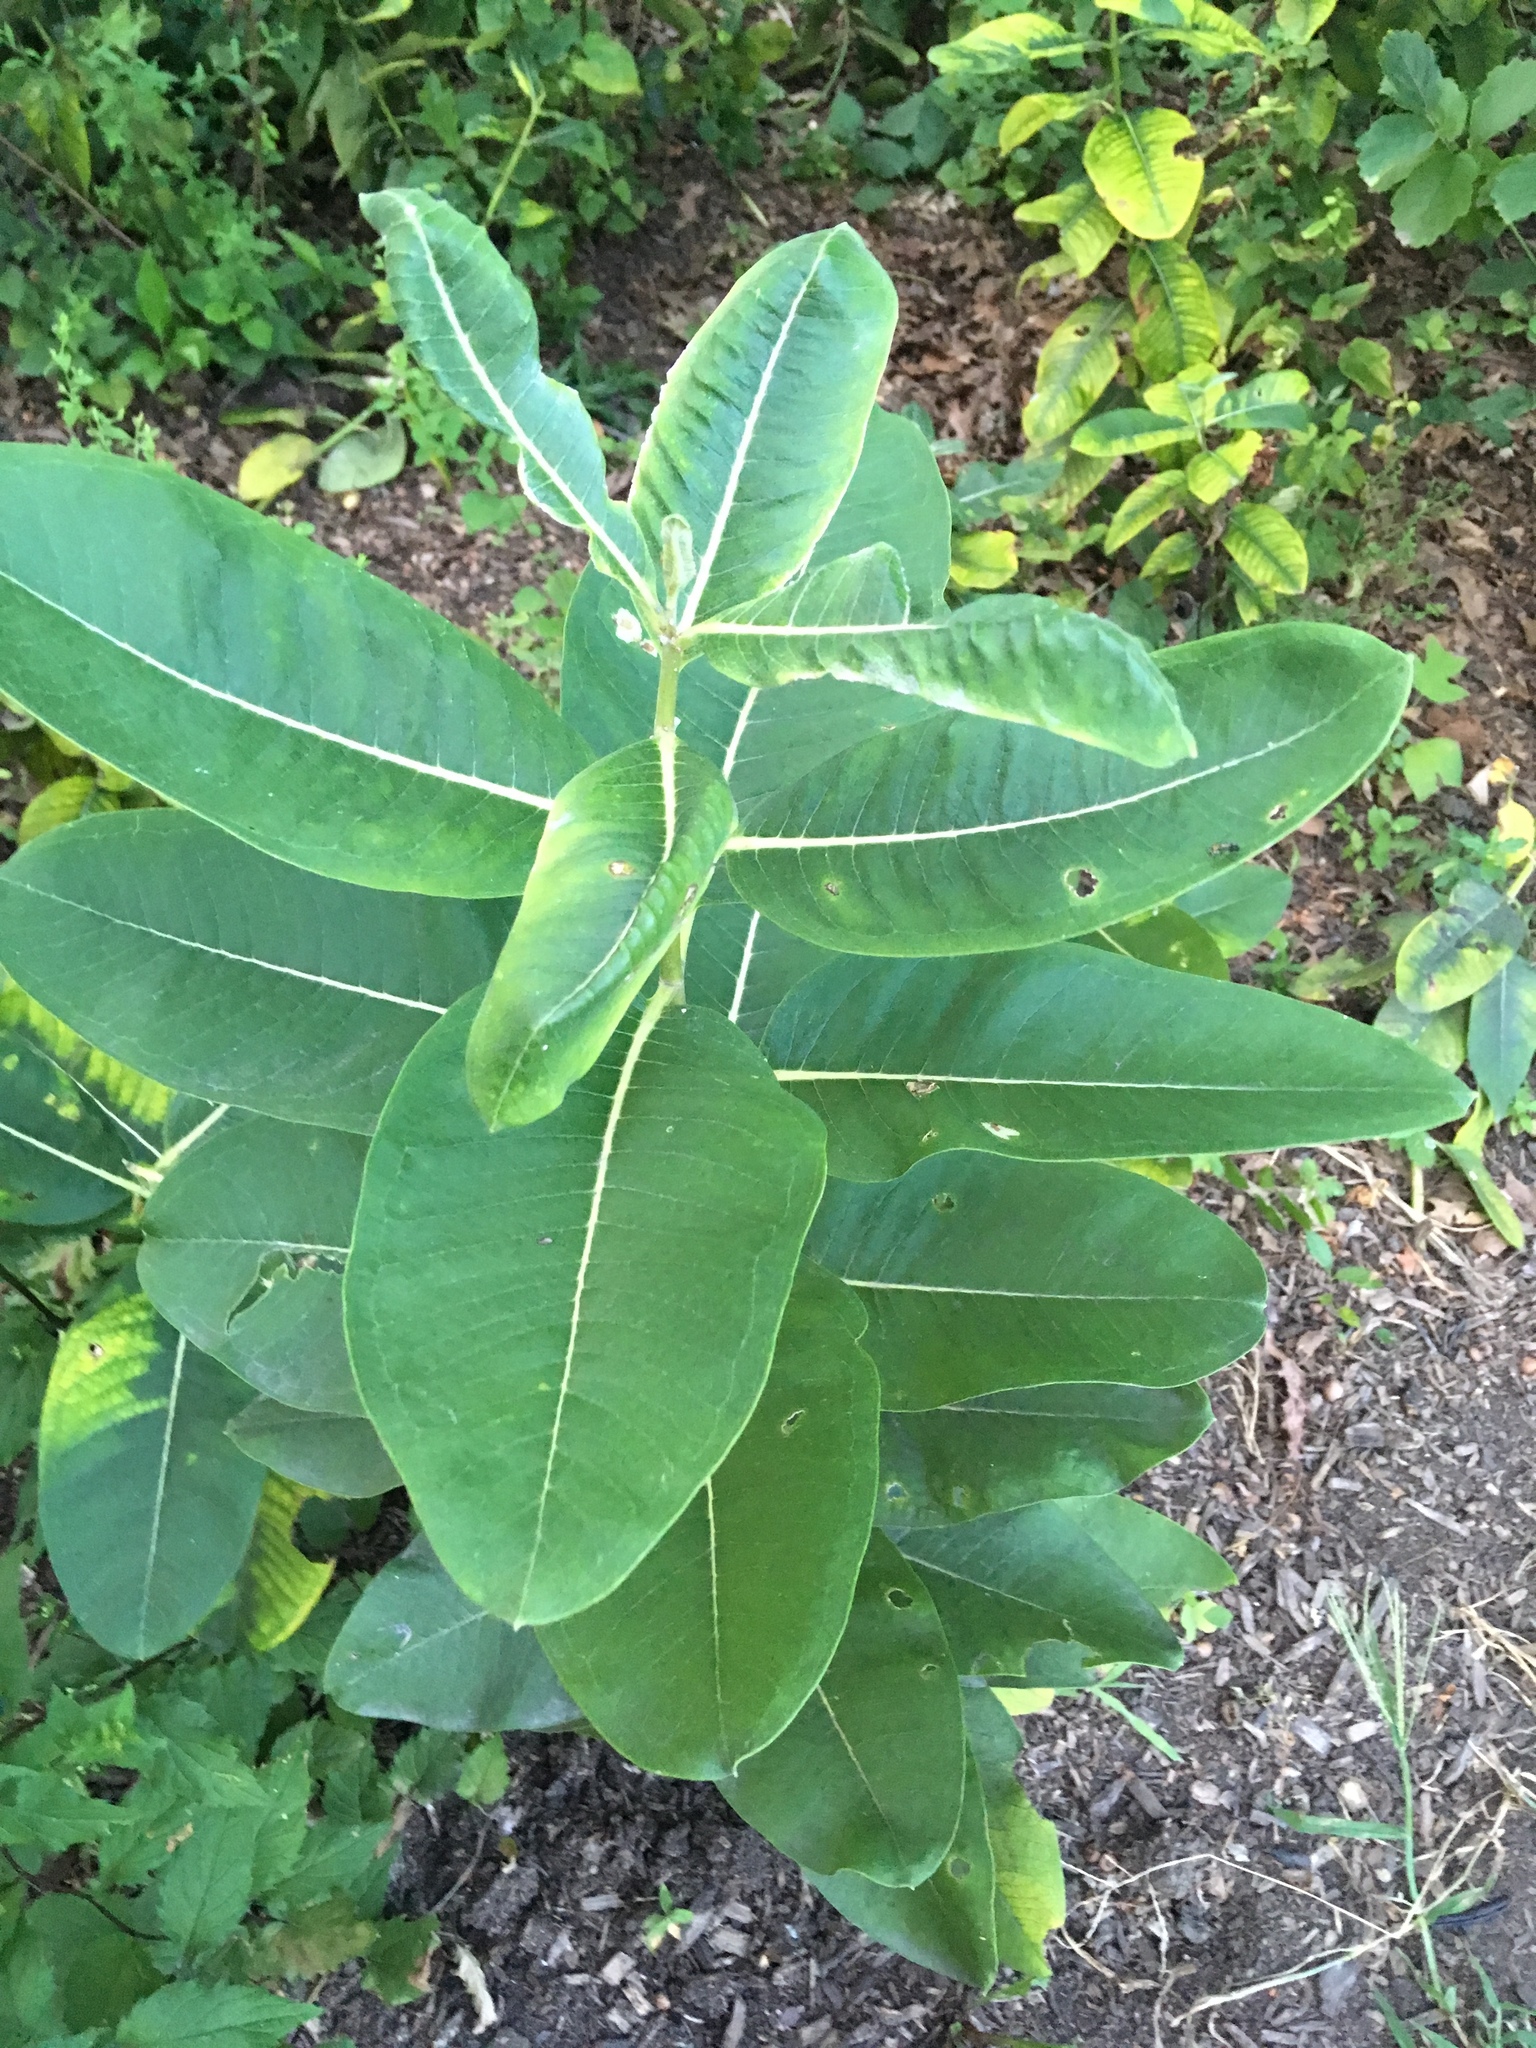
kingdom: Plantae
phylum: Tracheophyta
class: Magnoliopsida
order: Gentianales
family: Apocynaceae
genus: Asclepias
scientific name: Asclepias syriaca
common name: Common milkweed
